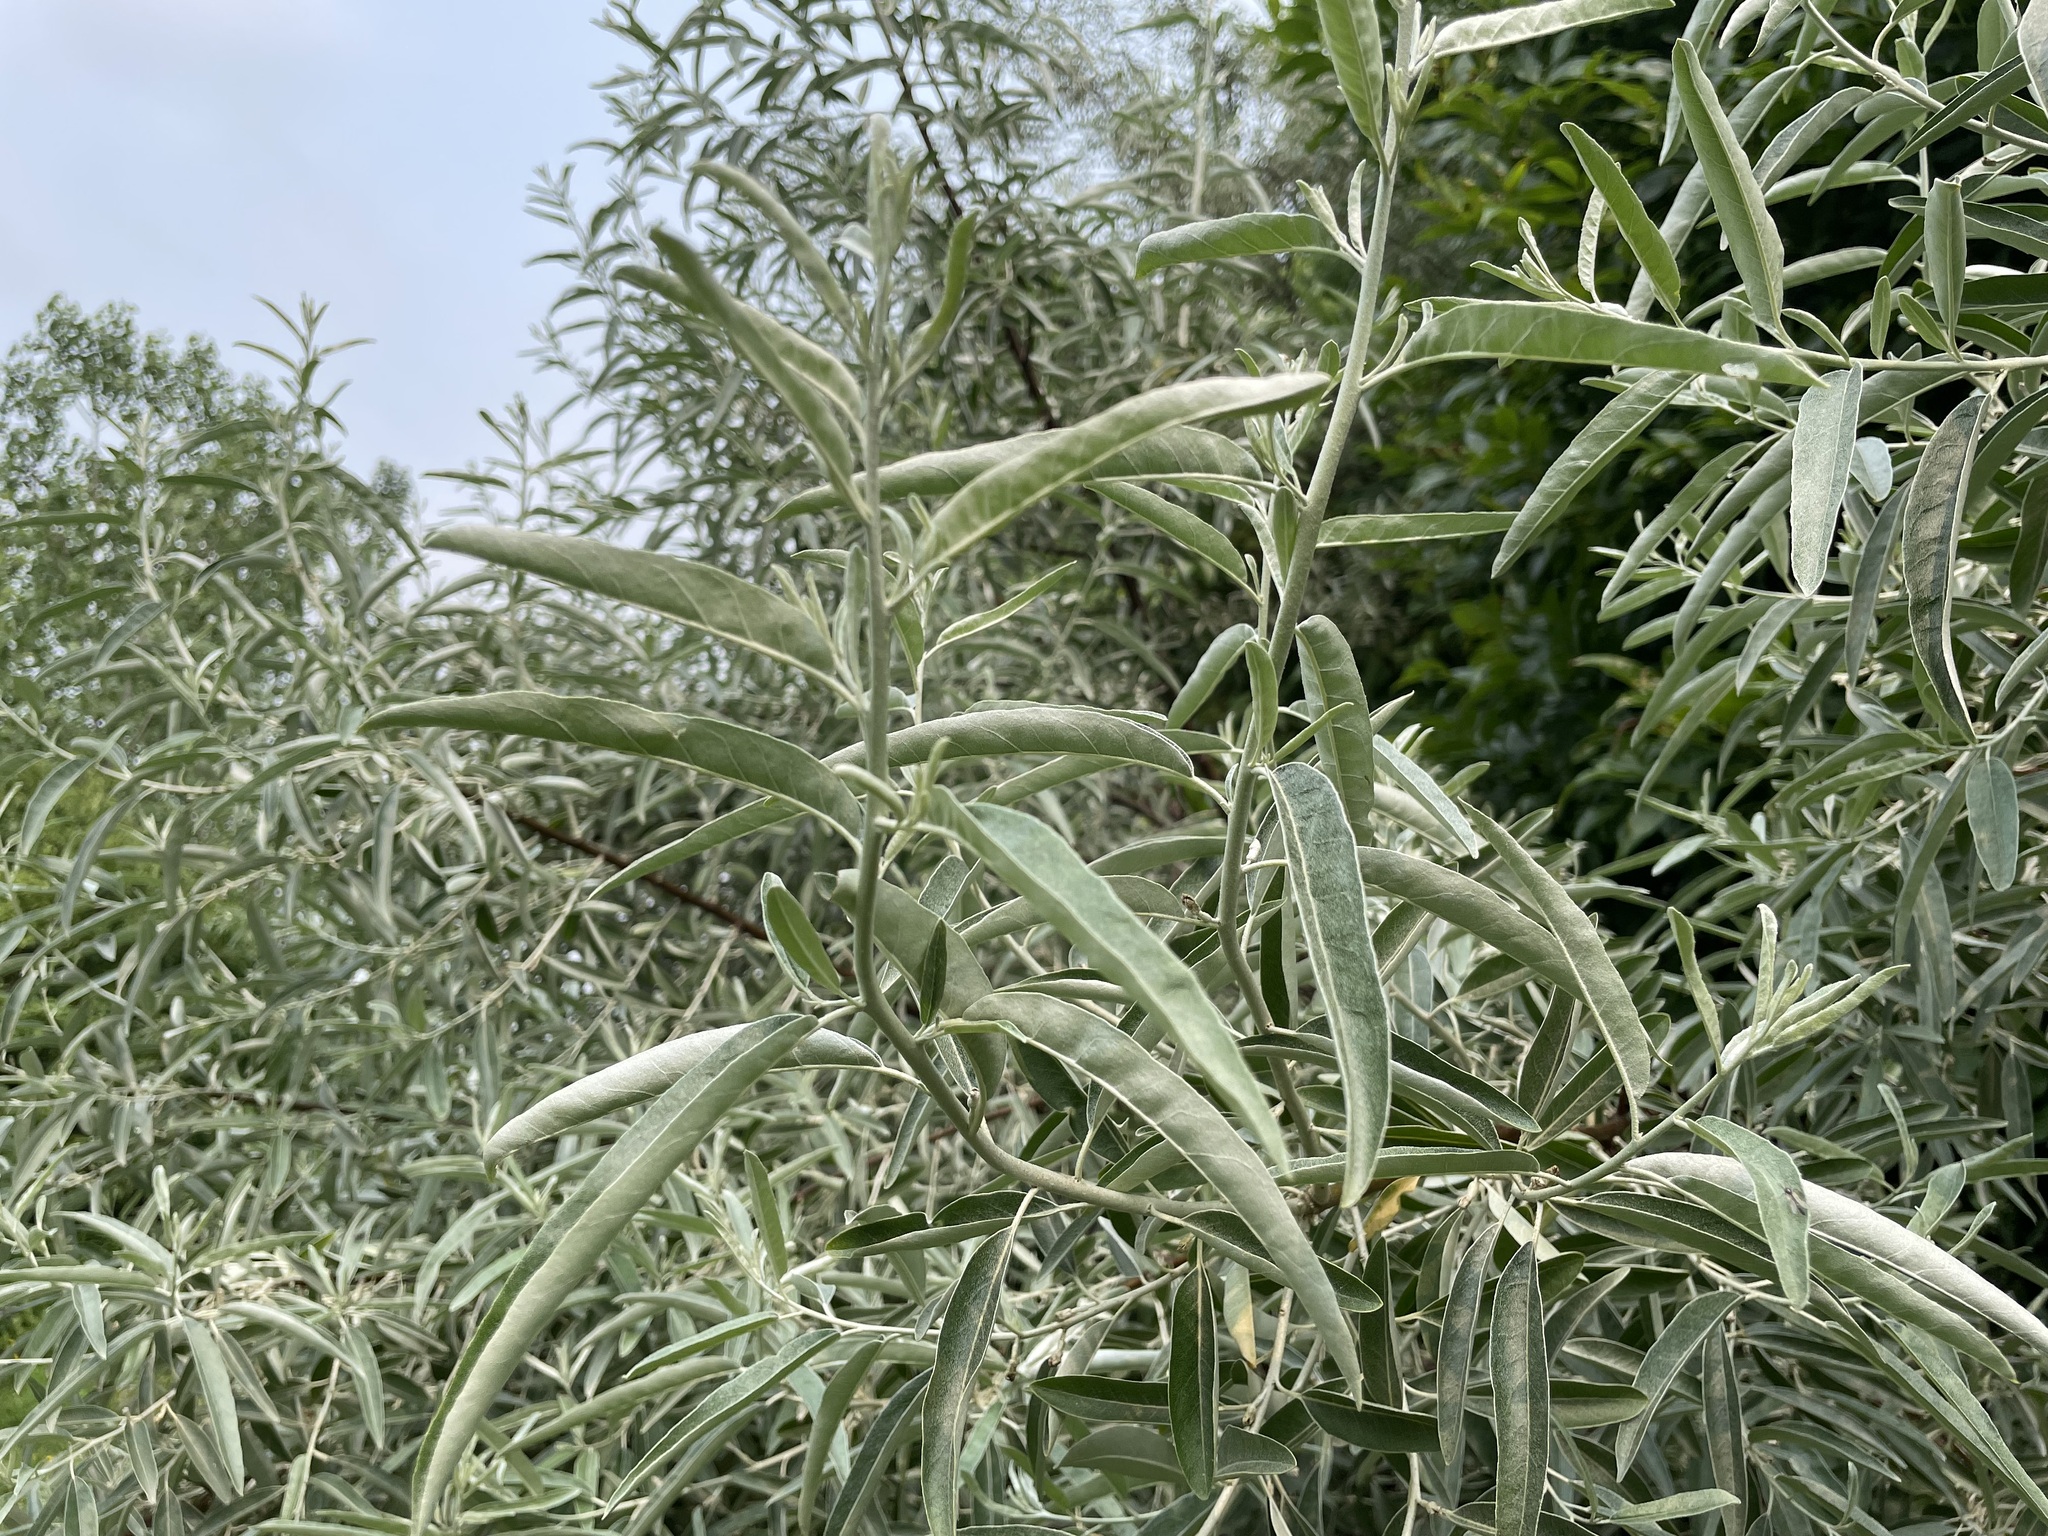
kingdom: Plantae
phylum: Tracheophyta
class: Magnoliopsida
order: Rosales
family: Elaeagnaceae
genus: Elaeagnus
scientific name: Elaeagnus angustifolia
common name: Russian olive
